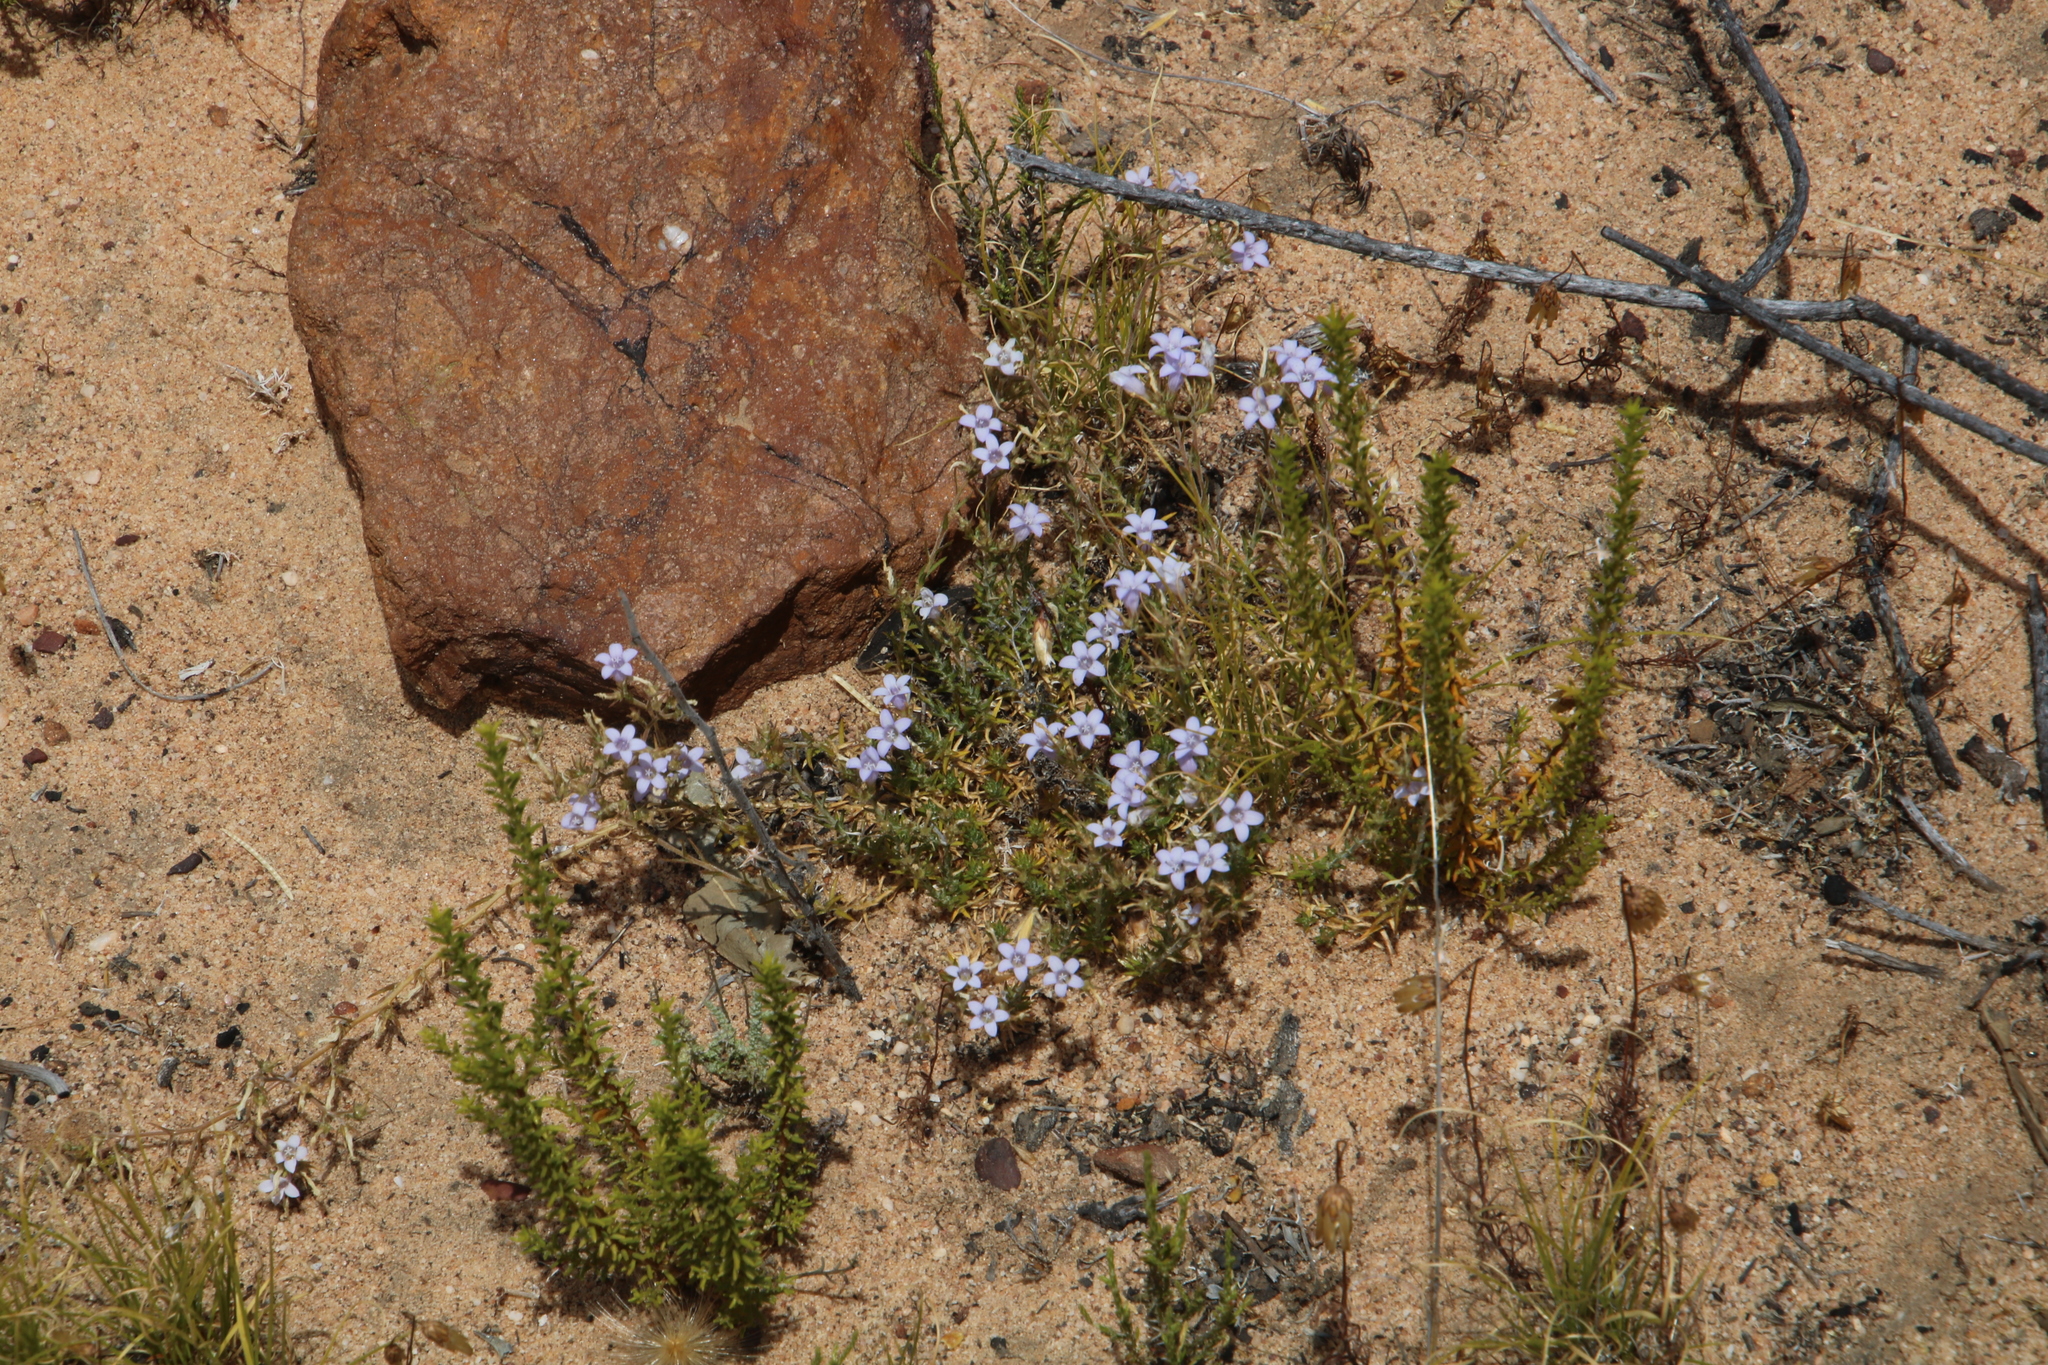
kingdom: Plantae
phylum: Tracheophyta
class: Magnoliopsida
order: Asterales
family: Campanulaceae
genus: Wahlenbergia
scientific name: Wahlenbergia oxyphylla
